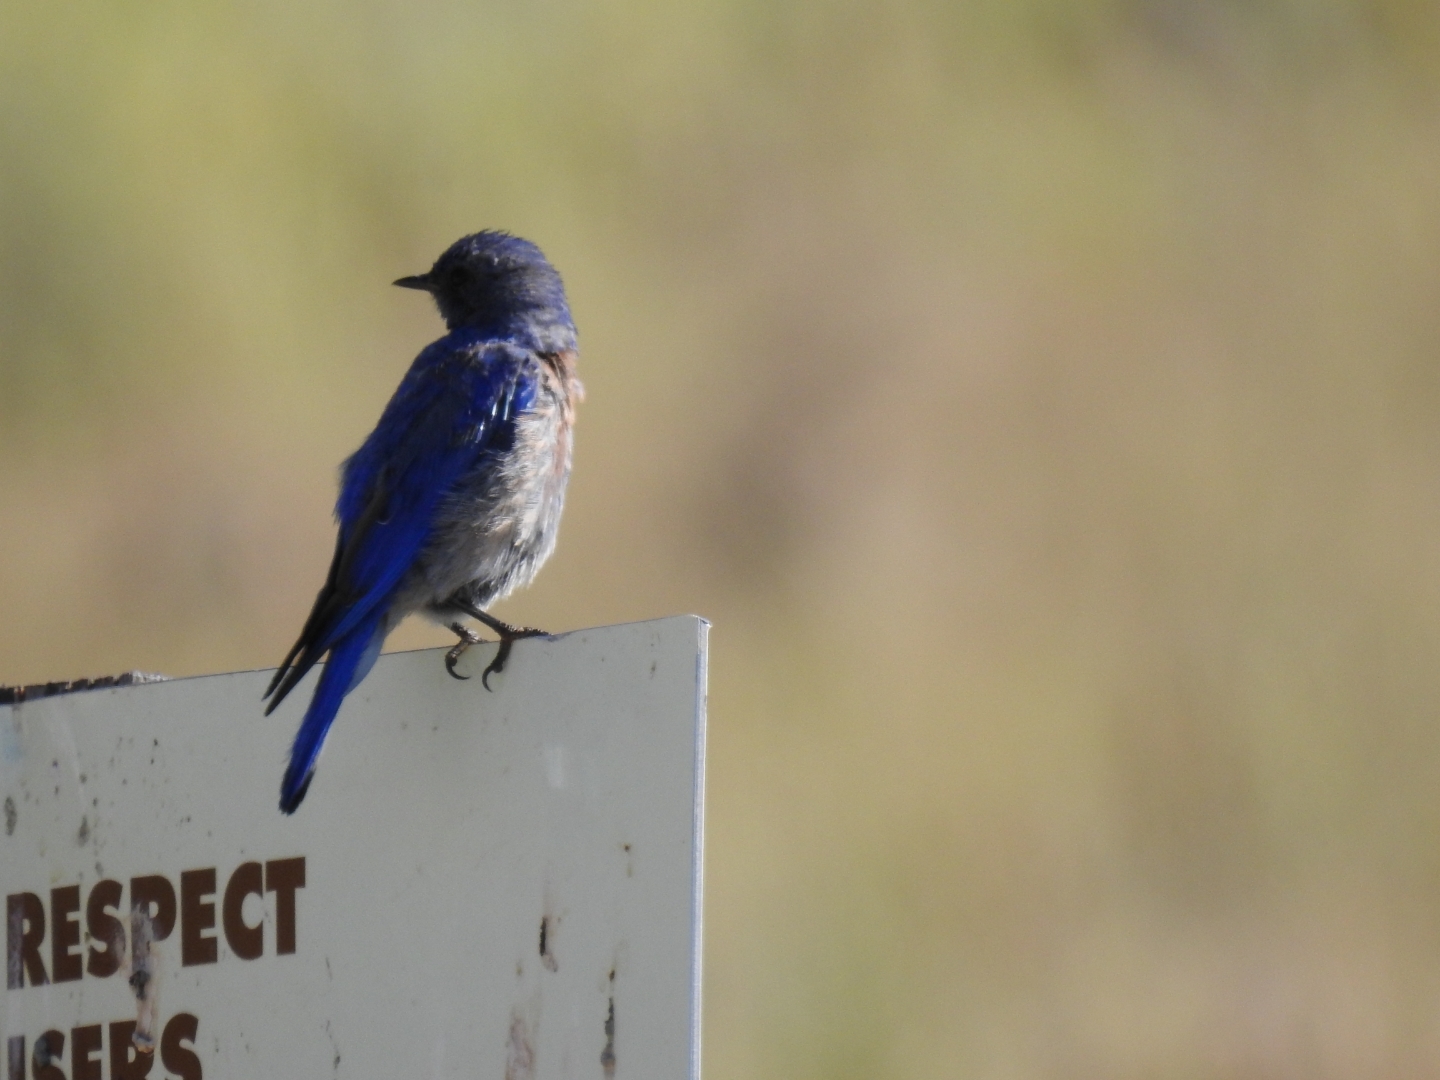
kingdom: Animalia
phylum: Chordata
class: Aves
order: Passeriformes
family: Turdidae
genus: Sialia
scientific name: Sialia mexicana
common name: Western bluebird
